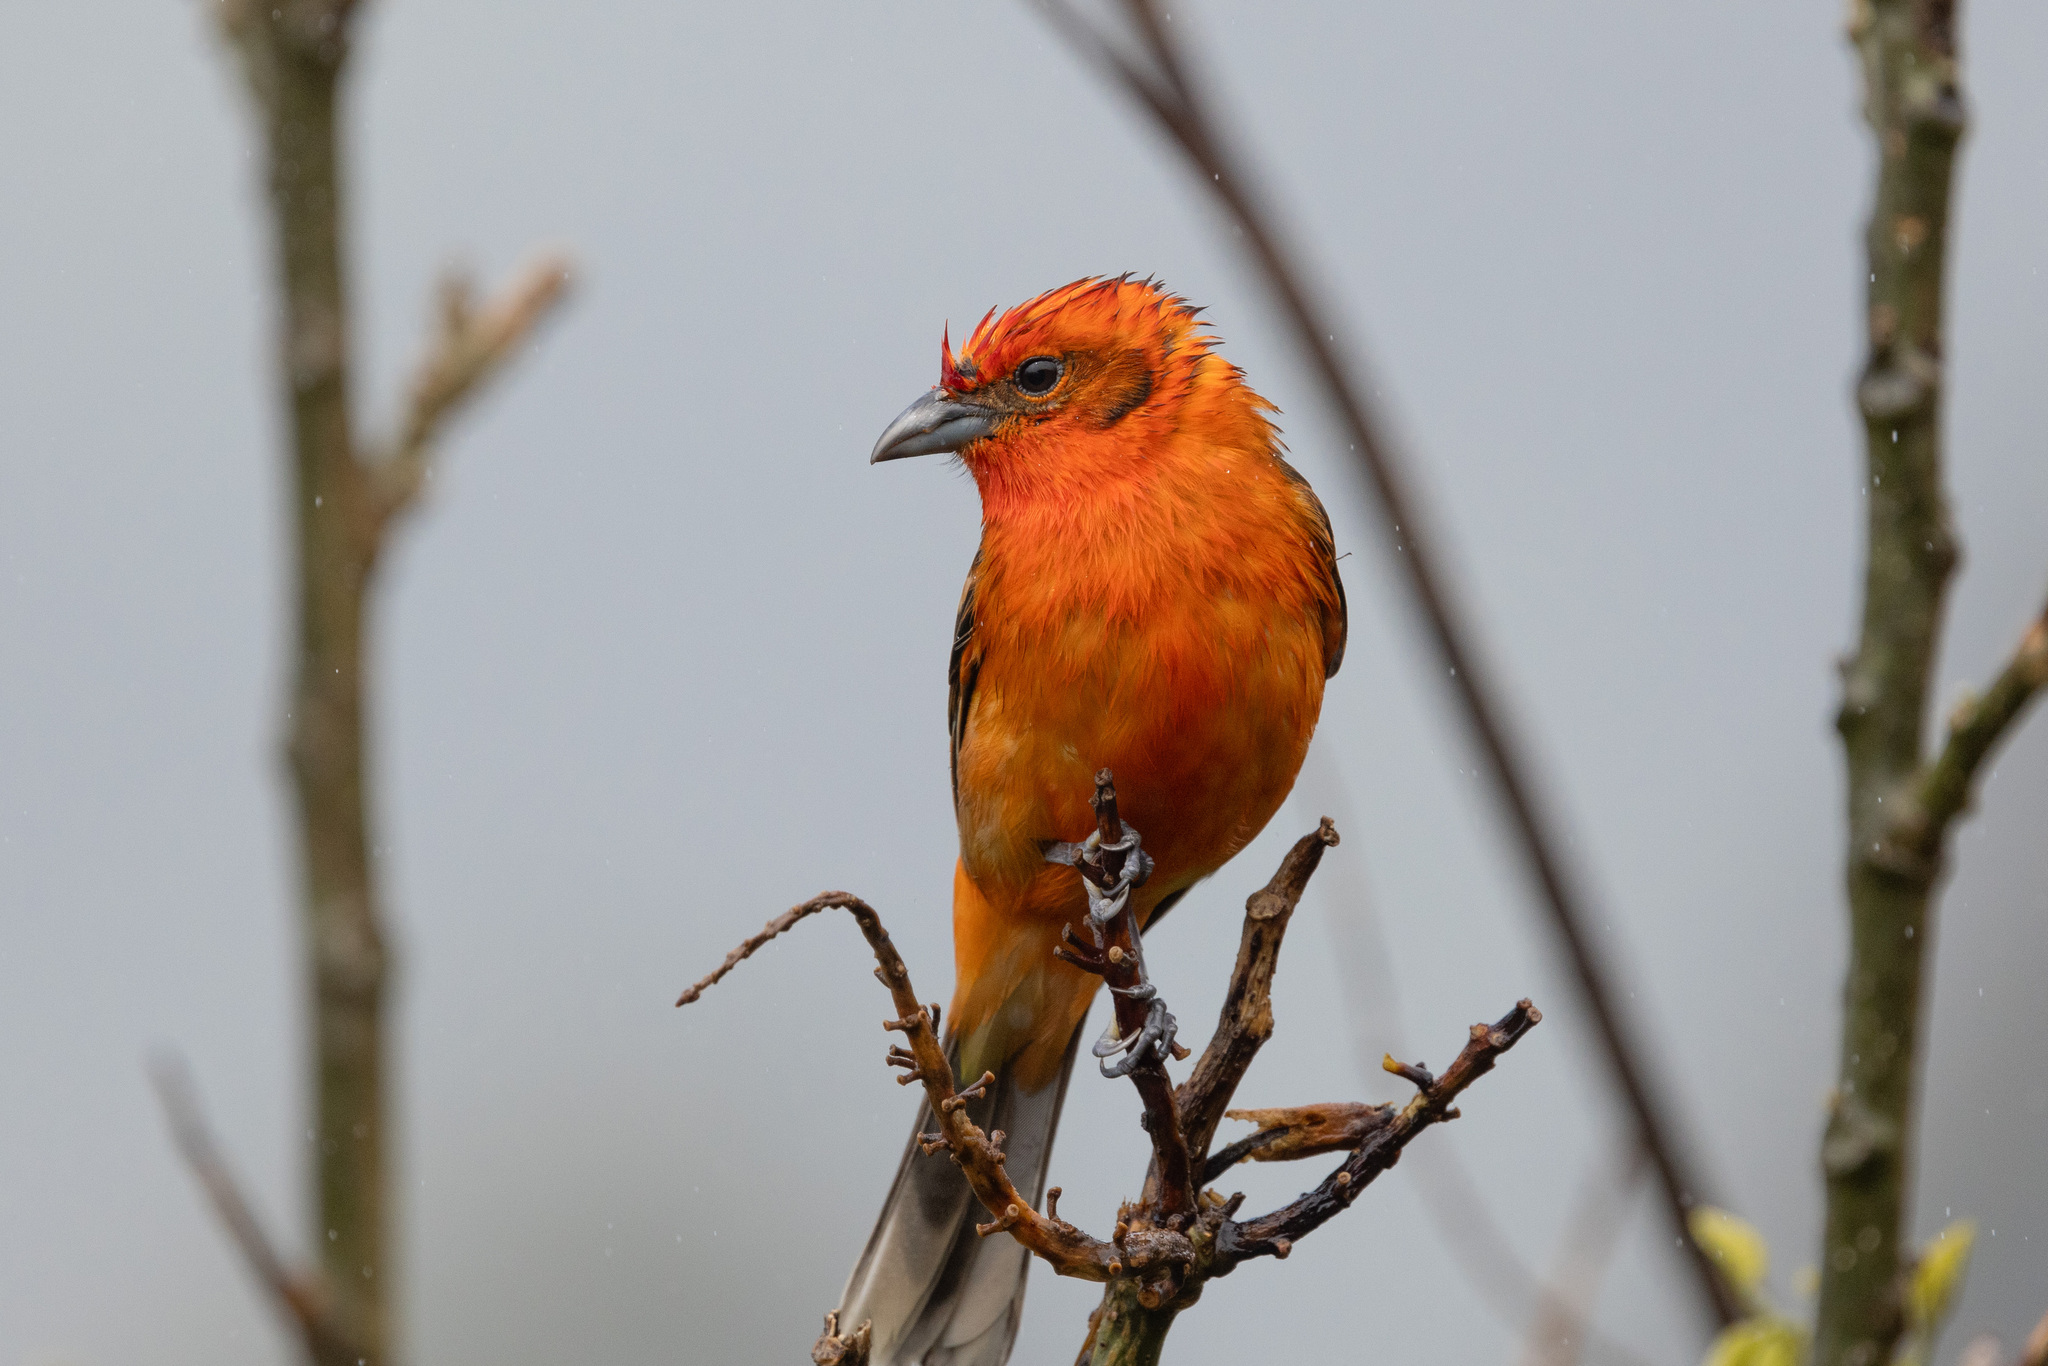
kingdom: Animalia
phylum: Chordata
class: Aves
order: Passeriformes
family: Cardinalidae
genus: Piranga
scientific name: Piranga bidentata
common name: Flame-colored tanager
